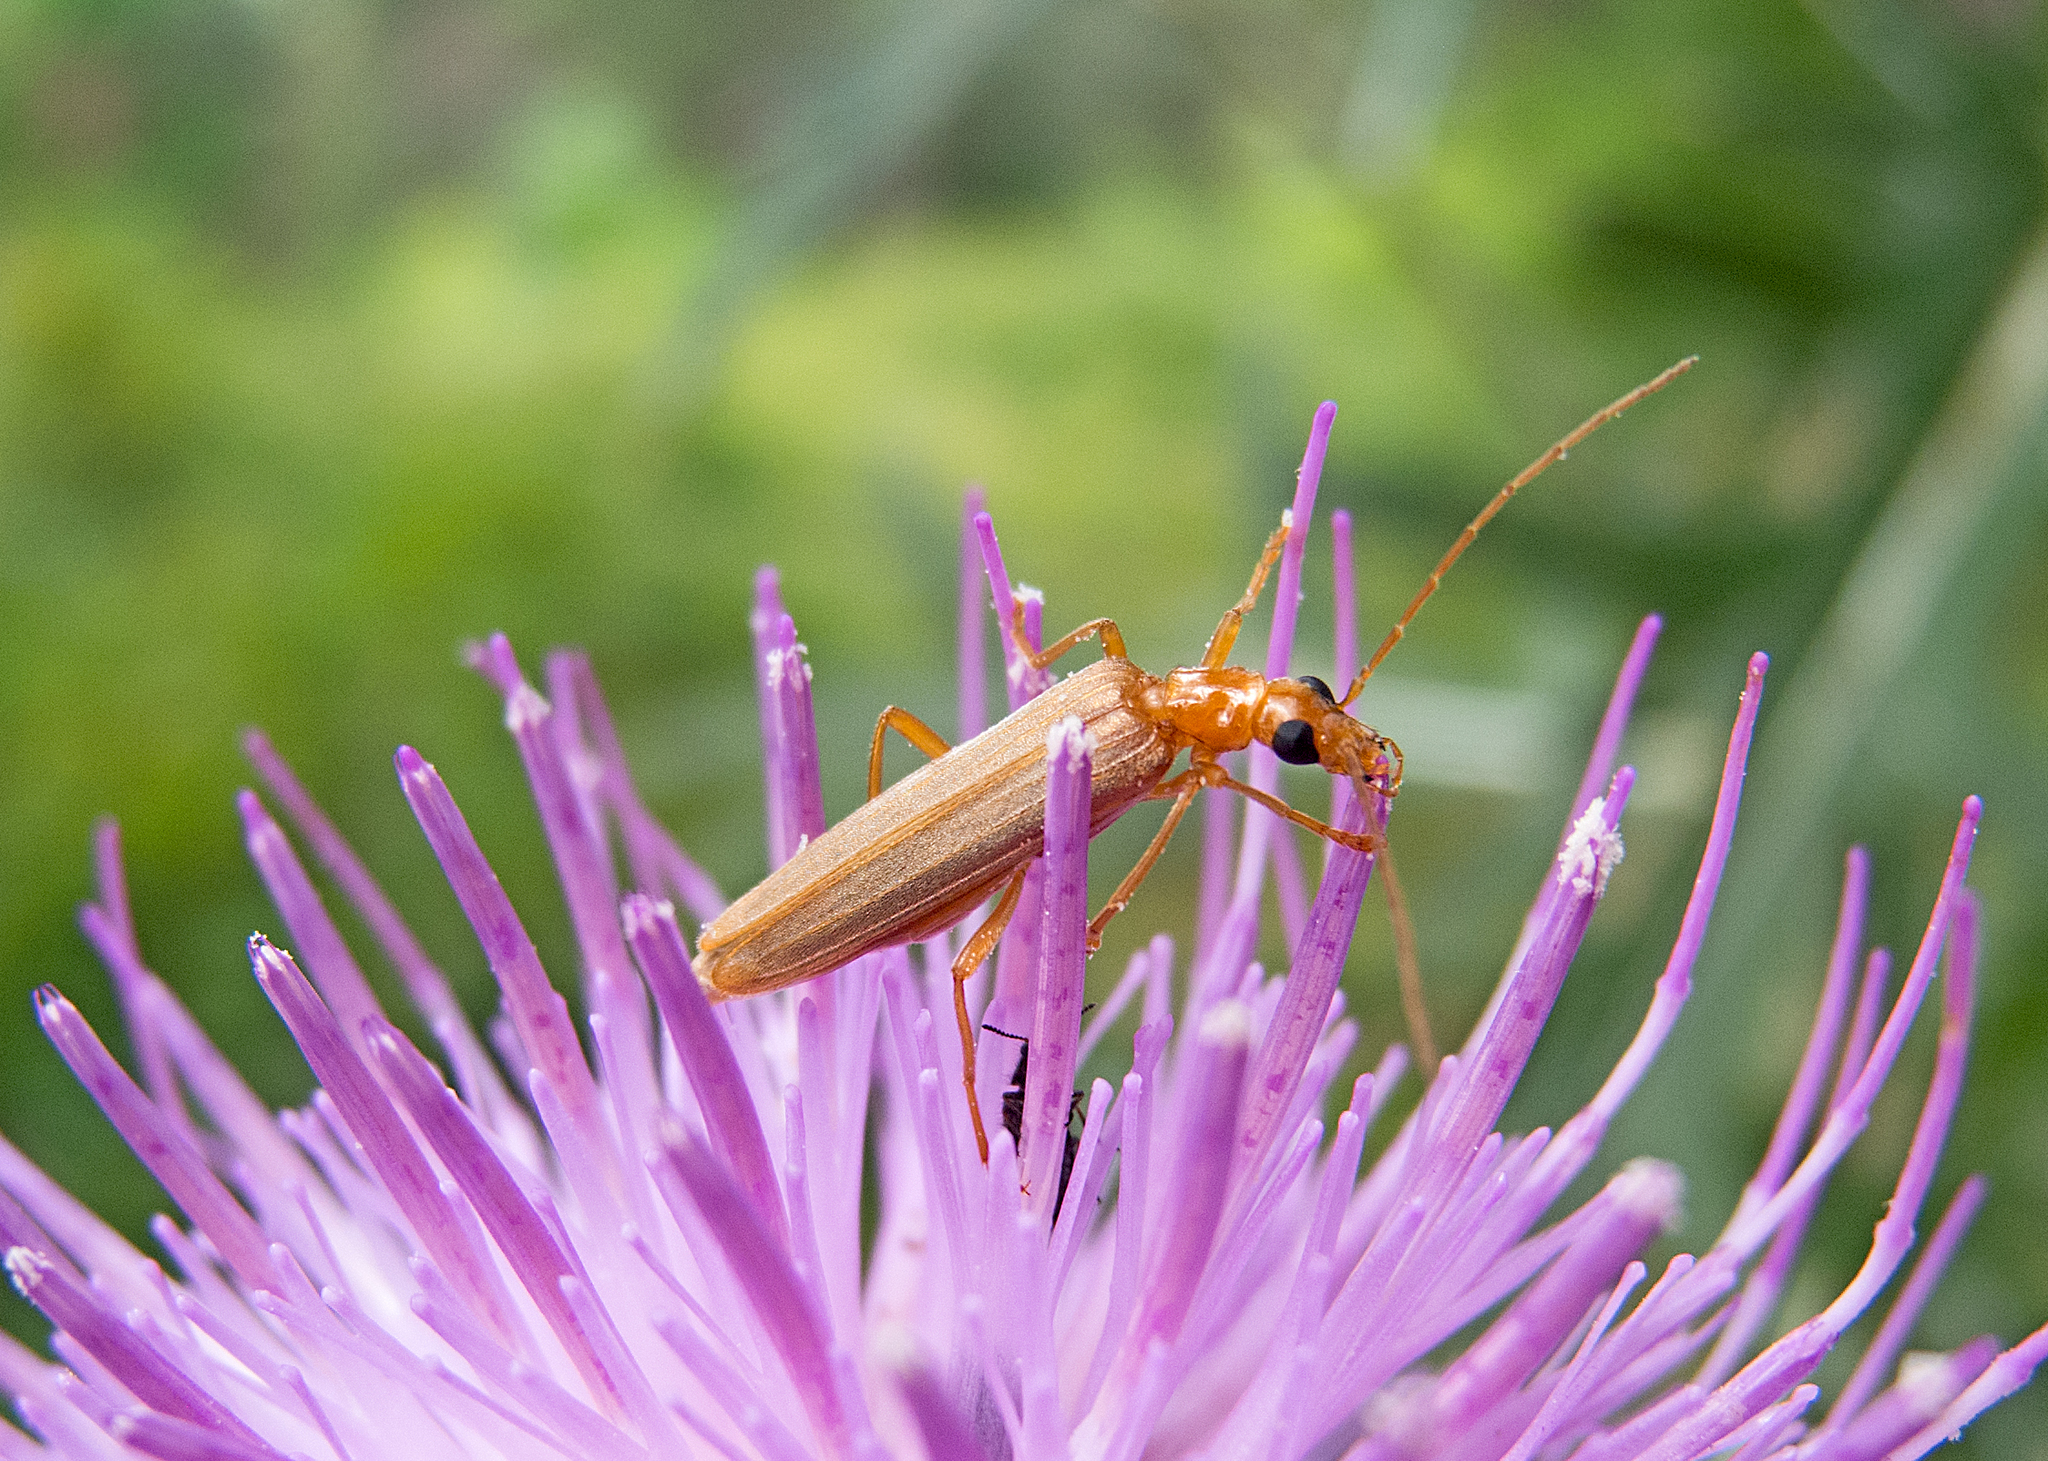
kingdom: Animalia
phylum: Arthropoda
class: Insecta
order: Coleoptera
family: Oedemeridae
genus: Oedemera
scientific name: Oedemera flavicans
